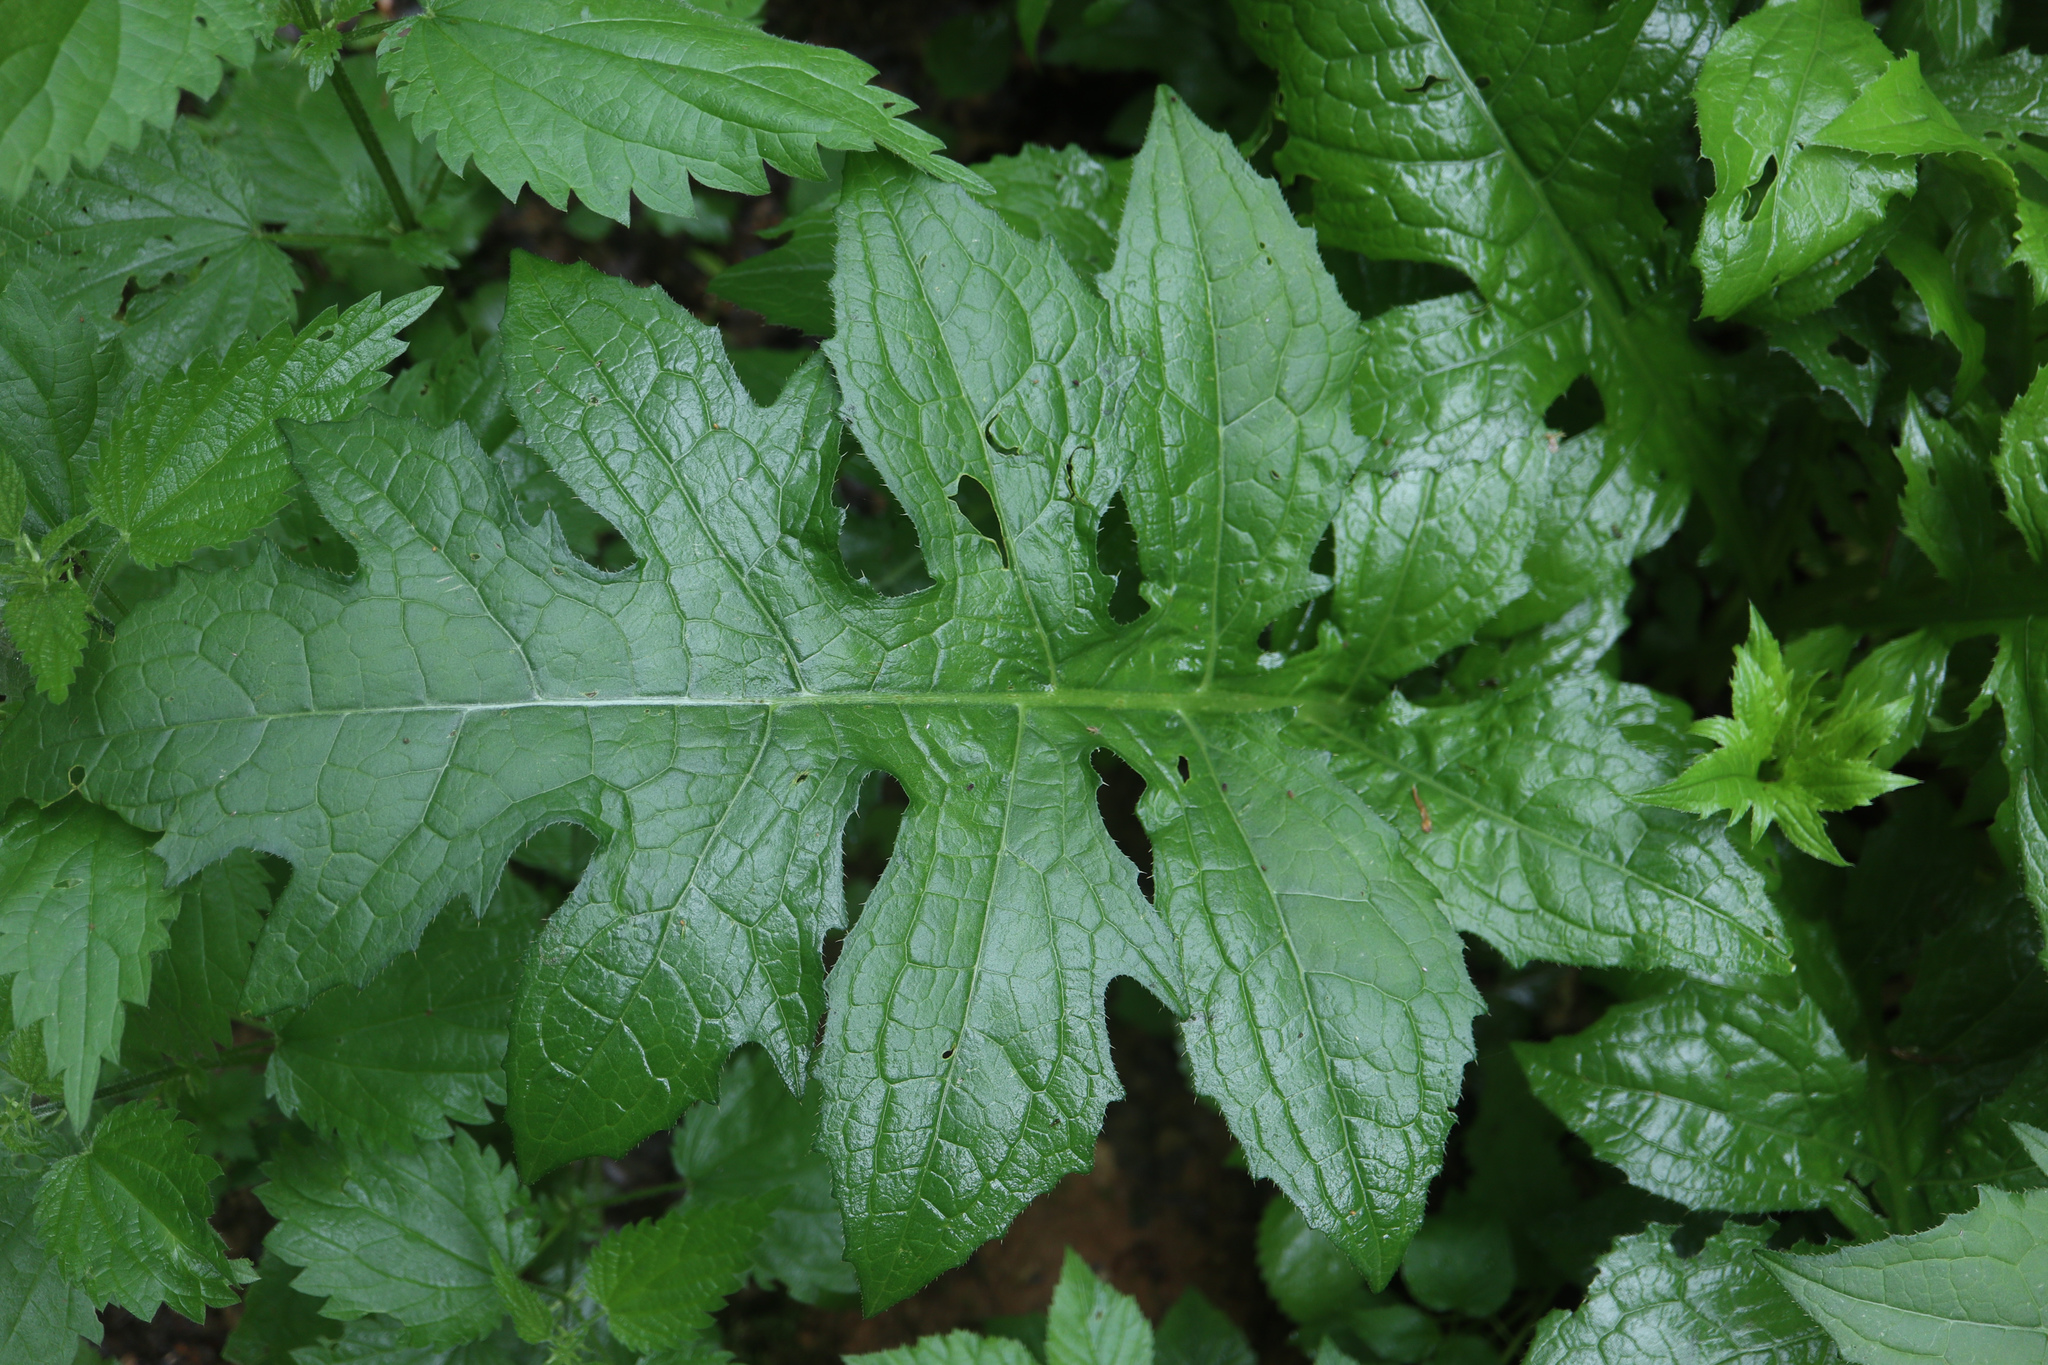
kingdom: Plantae
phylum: Tracheophyta
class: Magnoliopsida
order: Asterales
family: Asteraceae
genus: Cirsium
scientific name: Cirsium oleraceum
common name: Cabbage thistle
